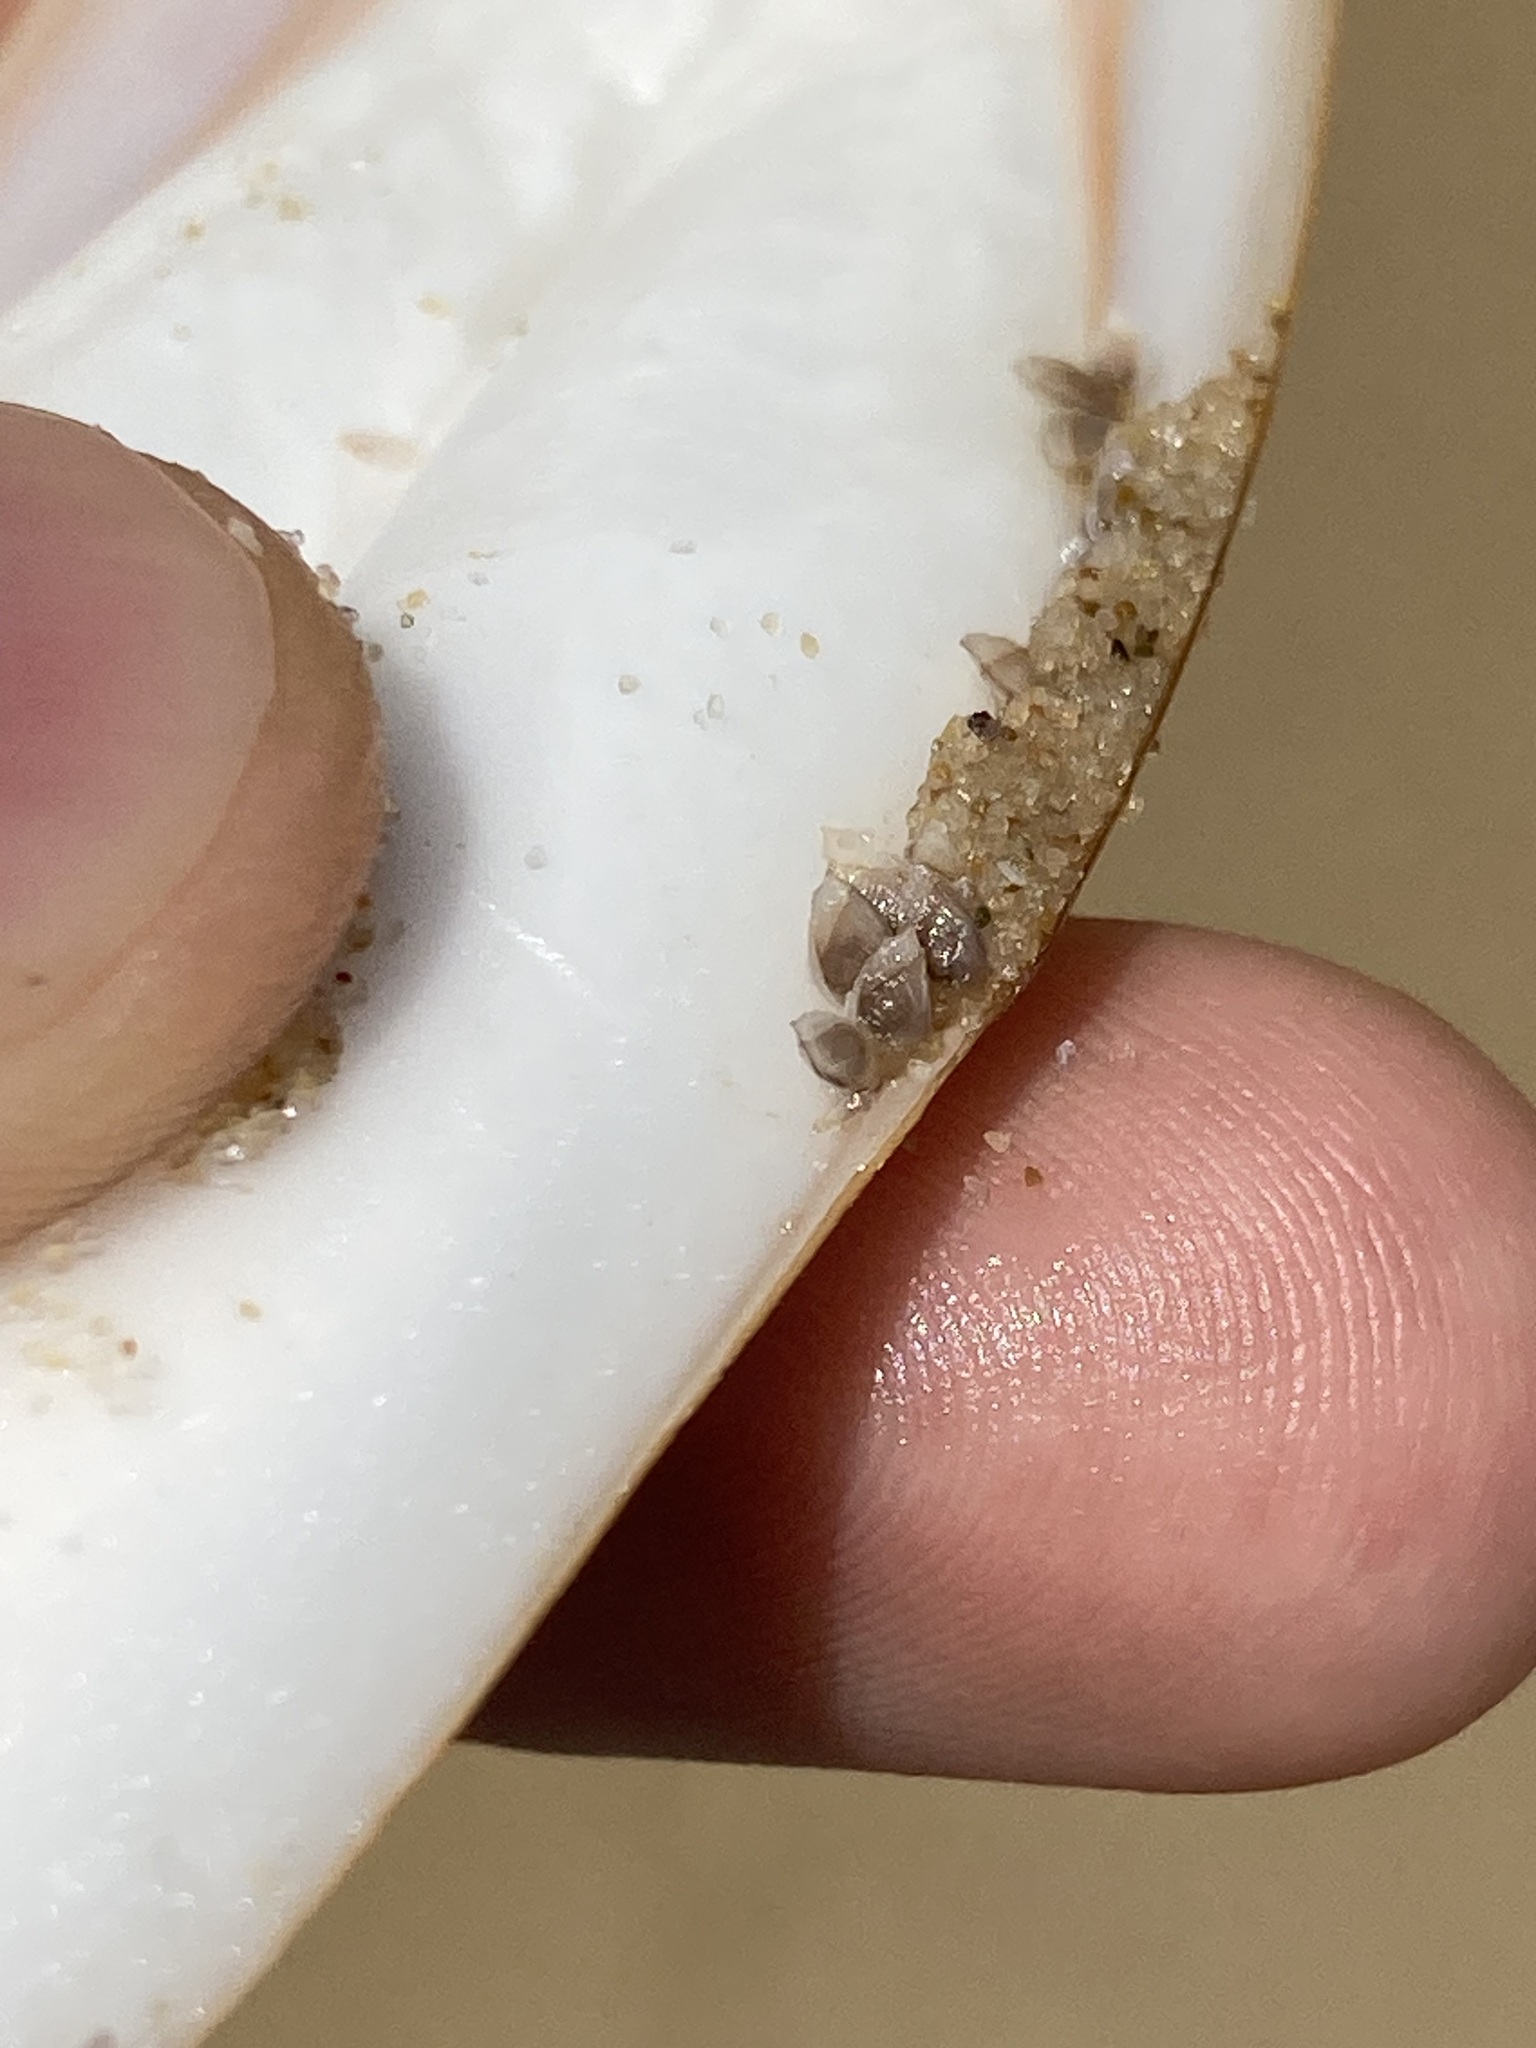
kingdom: Animalia
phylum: Arthropoda
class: Maxillopoda
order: Pedunculata
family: Lepadidae
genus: Lepas
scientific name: Lepas pectinata
